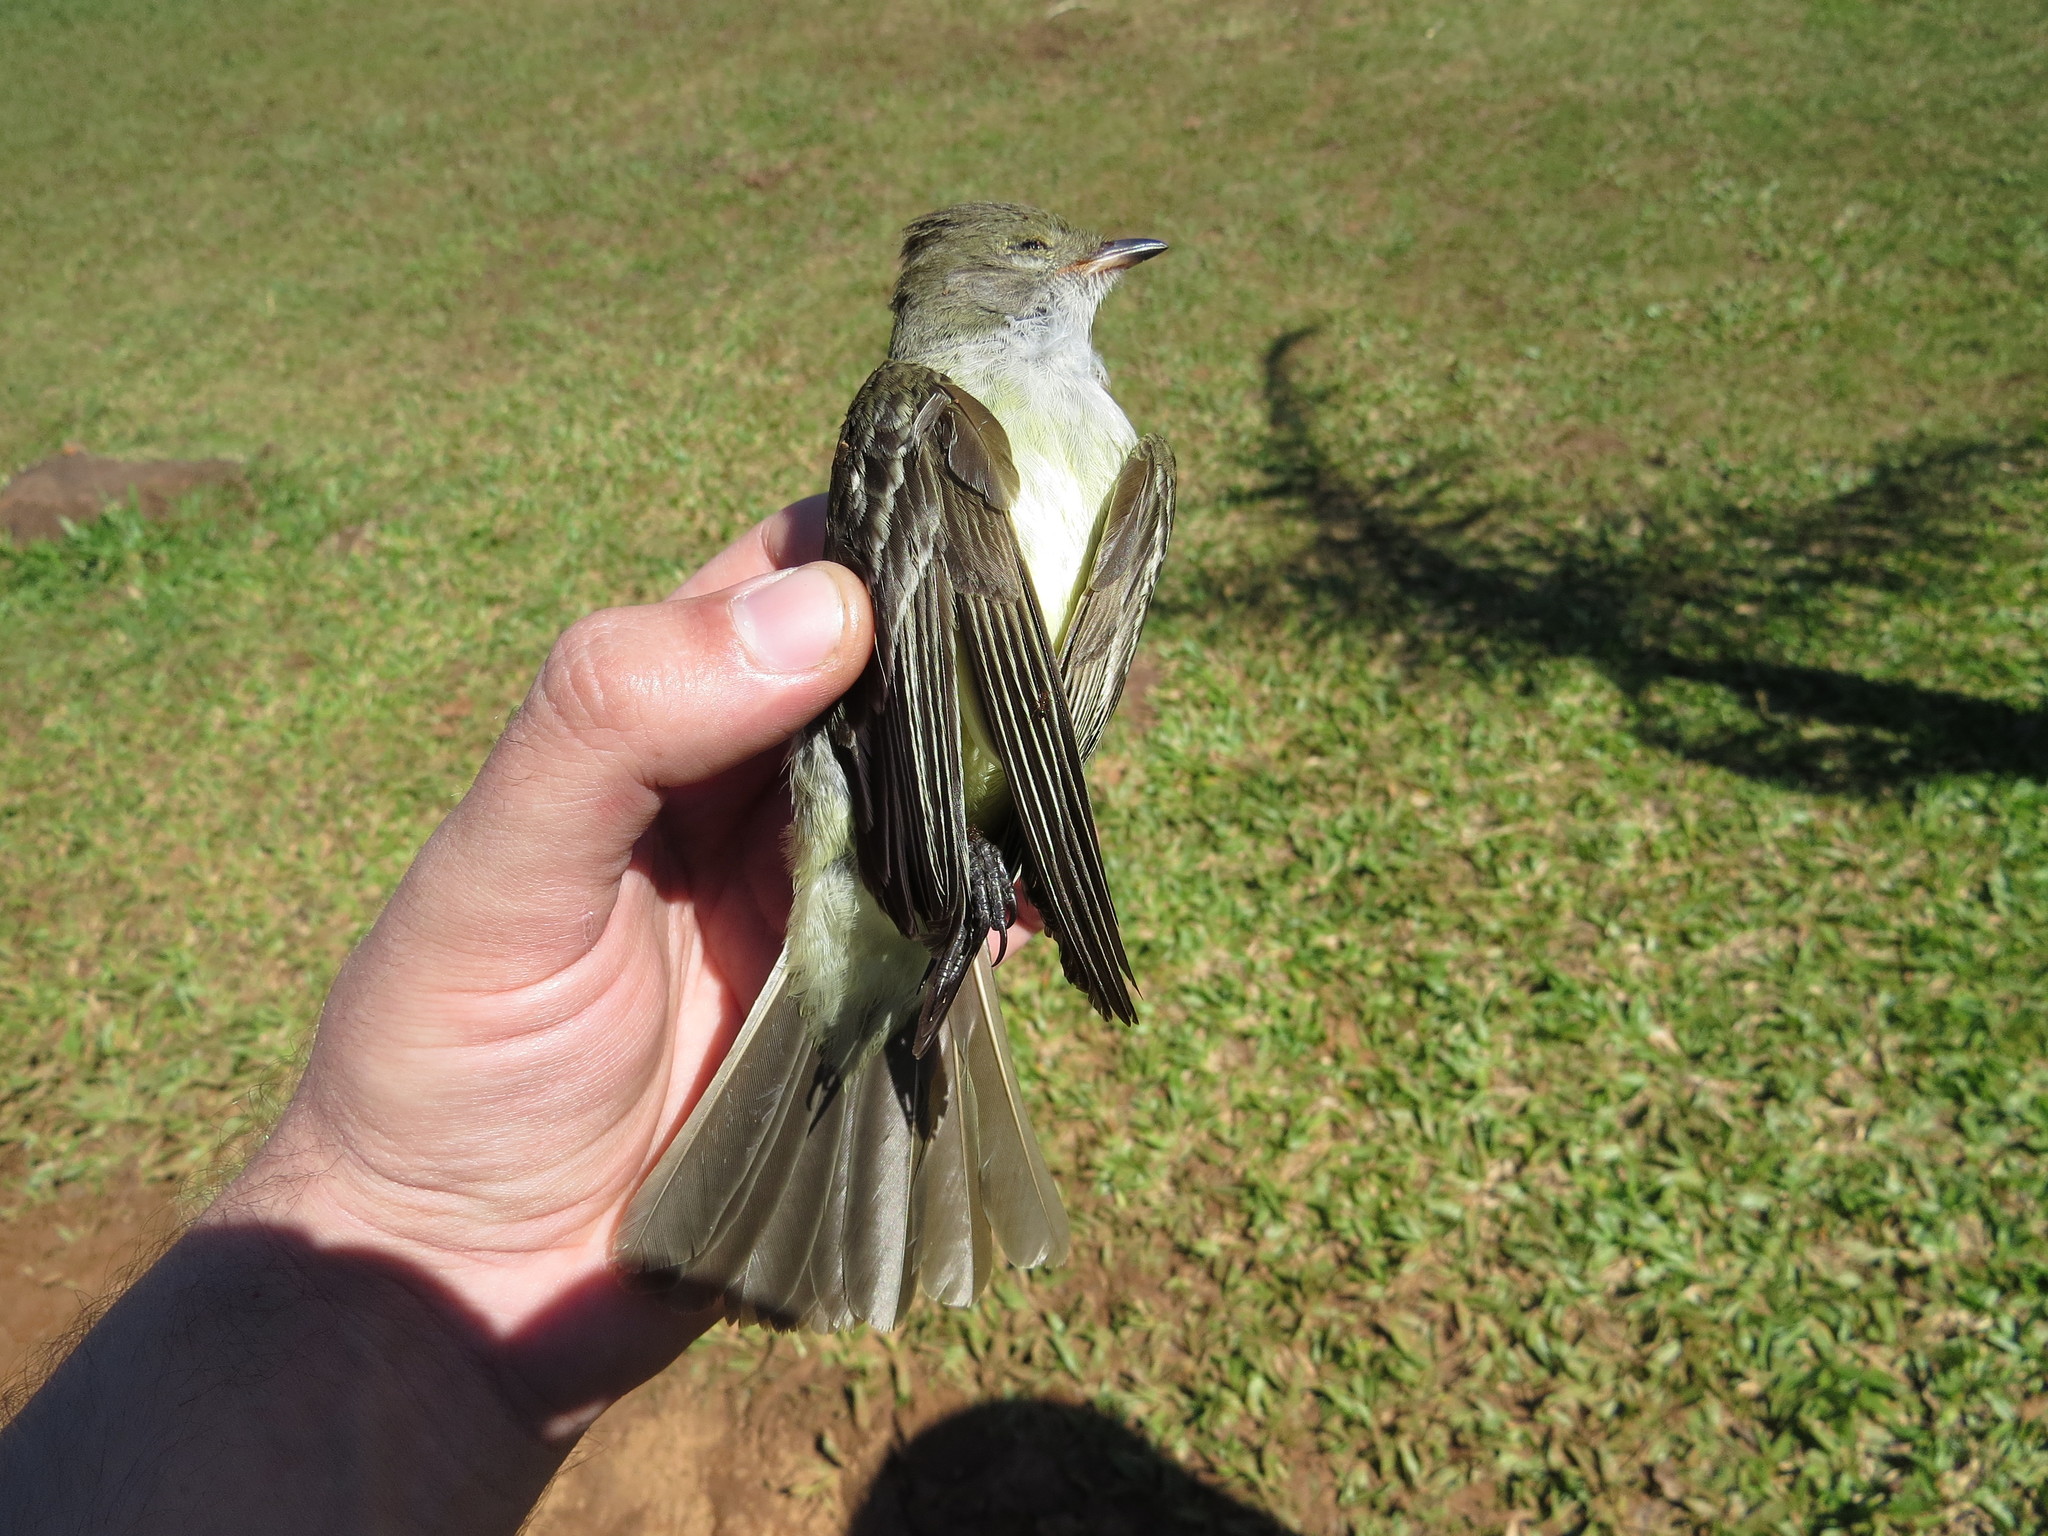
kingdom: Animalia
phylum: Chordata
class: Aves
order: Passeriformes
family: Tyrannidae
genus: Elaenia
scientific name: Elaenia spectabilis
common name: Large elaenia
